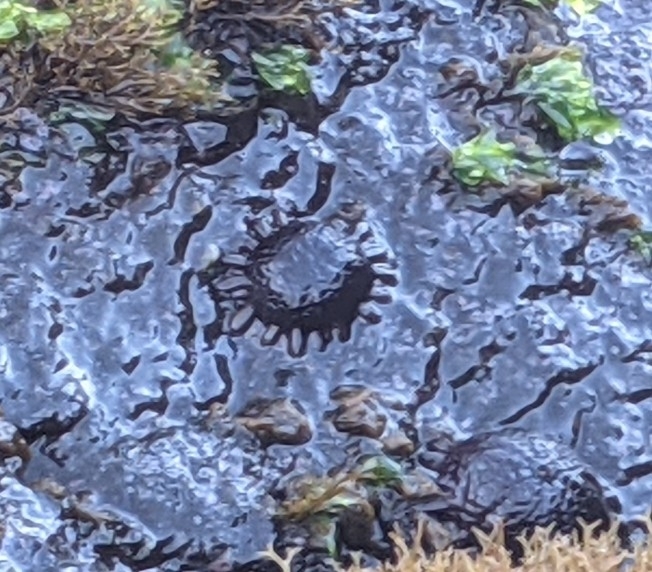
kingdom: Animalia
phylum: Echinodermata
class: Echinoidea
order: Camarodonta
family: Echinometridae
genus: Colobocentrotus
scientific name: Colobocentrotus atratus
